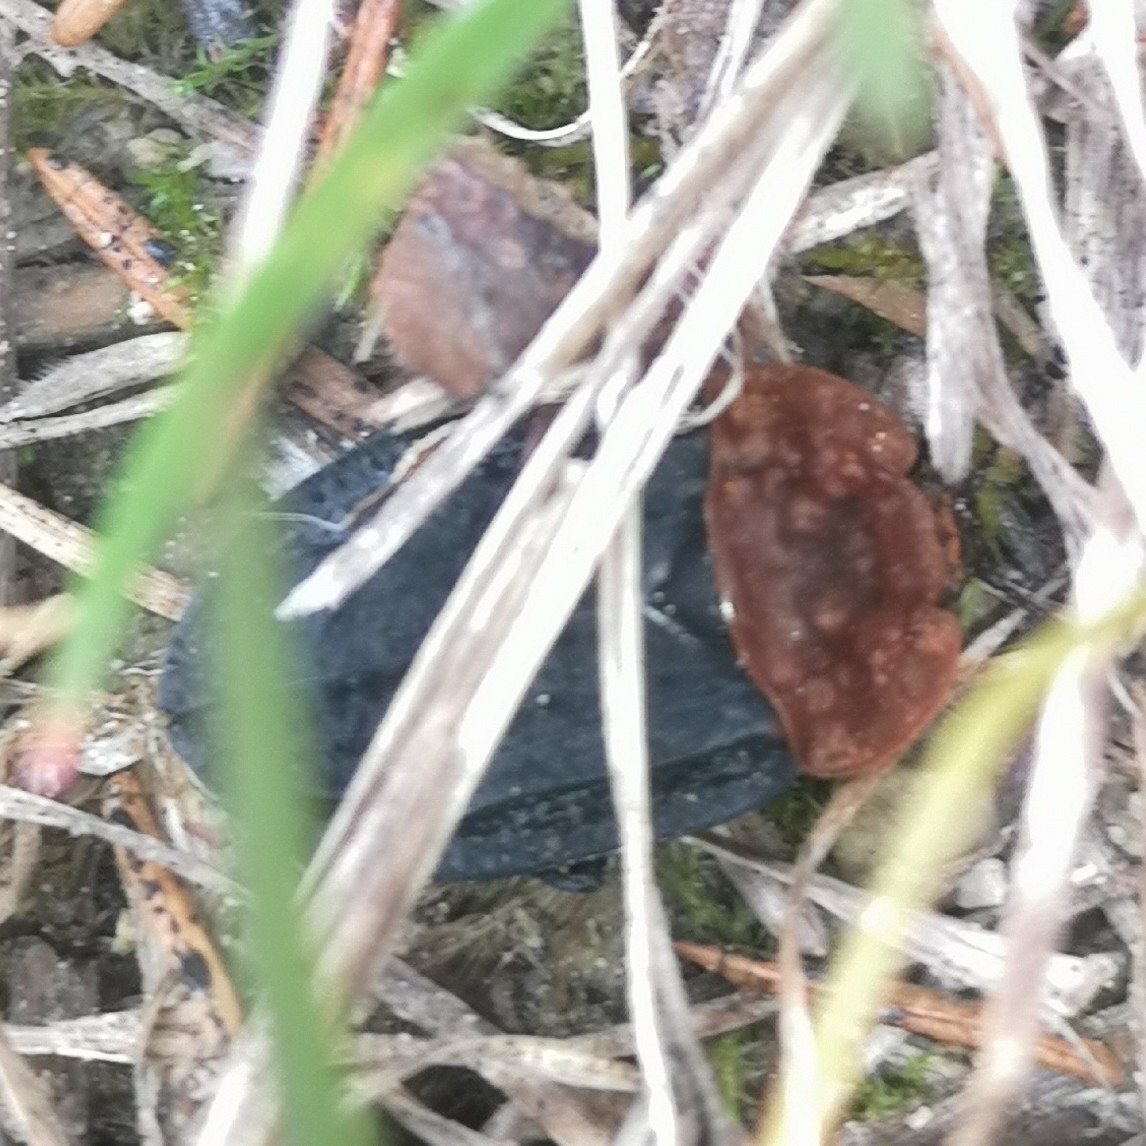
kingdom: Animalia
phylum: Arthropoda
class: Insecta
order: Coleoptera
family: Staphylinidae
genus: Oiceoptoma
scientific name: Oiceoptoma thoracicum
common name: Red-breasted carrion beetle
